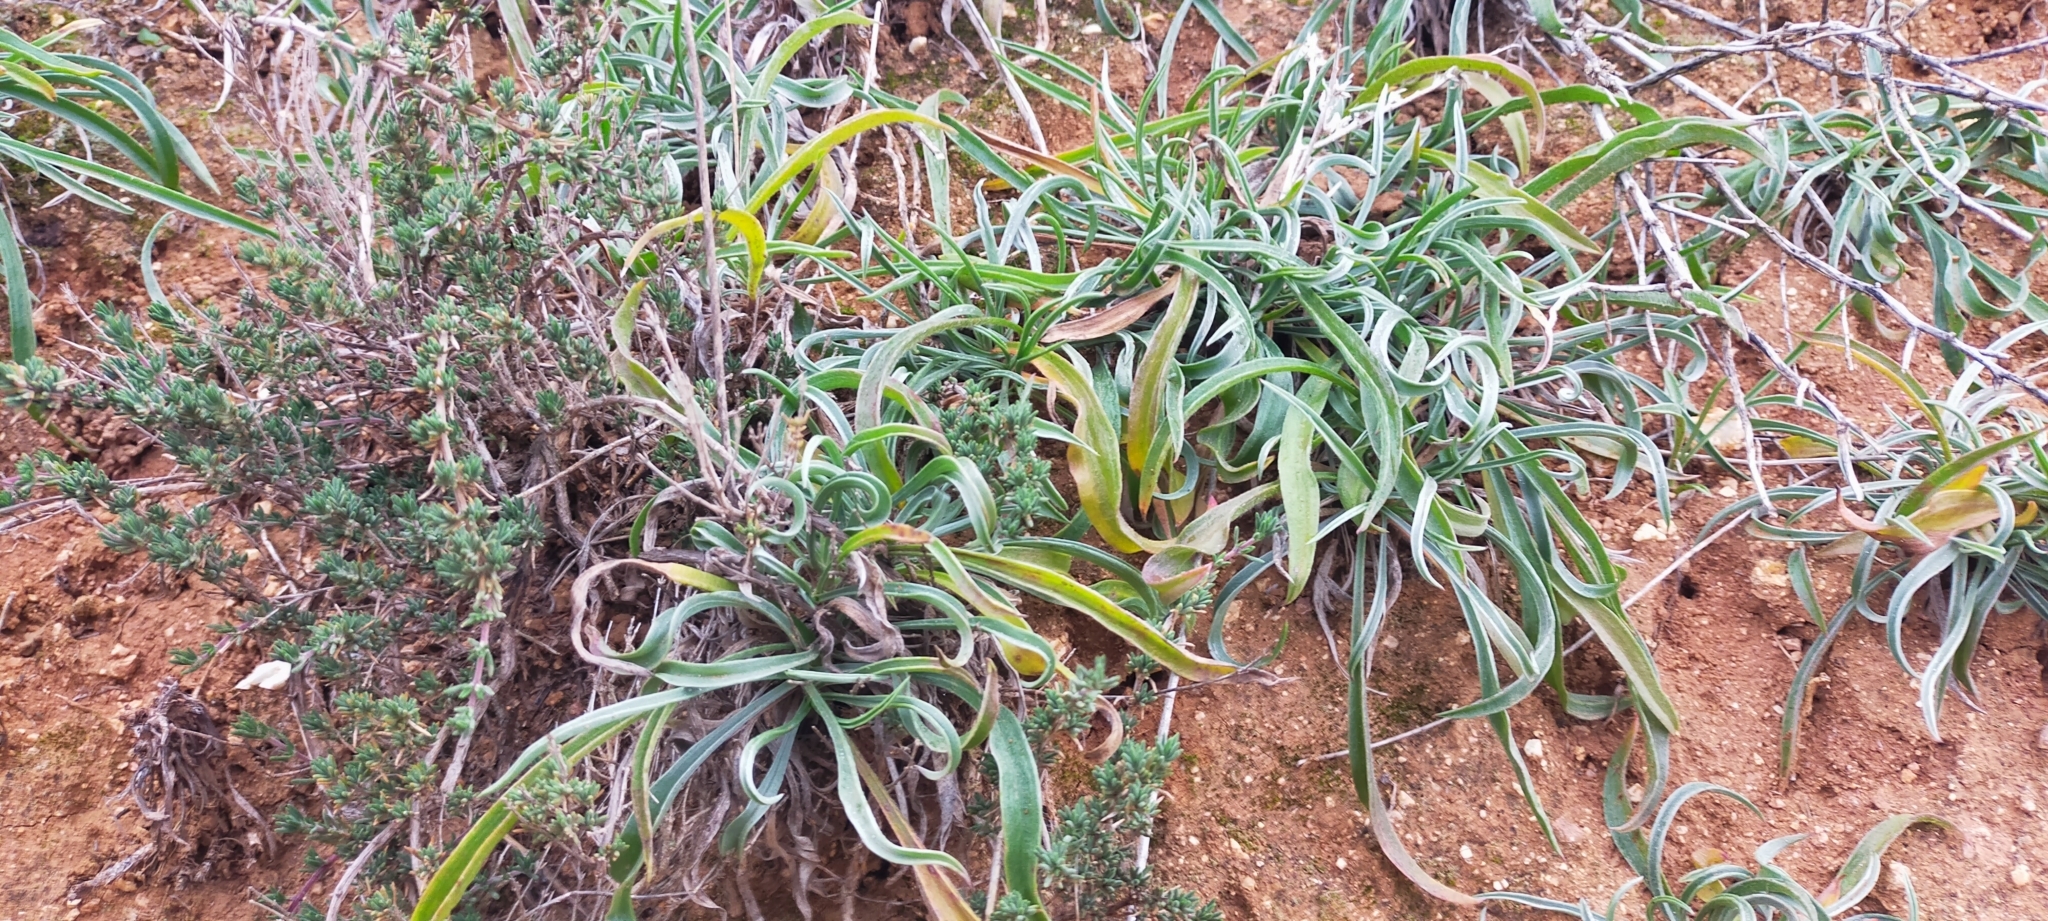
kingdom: Plantae
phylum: Tracheophyta
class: Magnoliopsida
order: Lamiales
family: Plantaginaceae
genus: Plantago
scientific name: Plantago albicans
